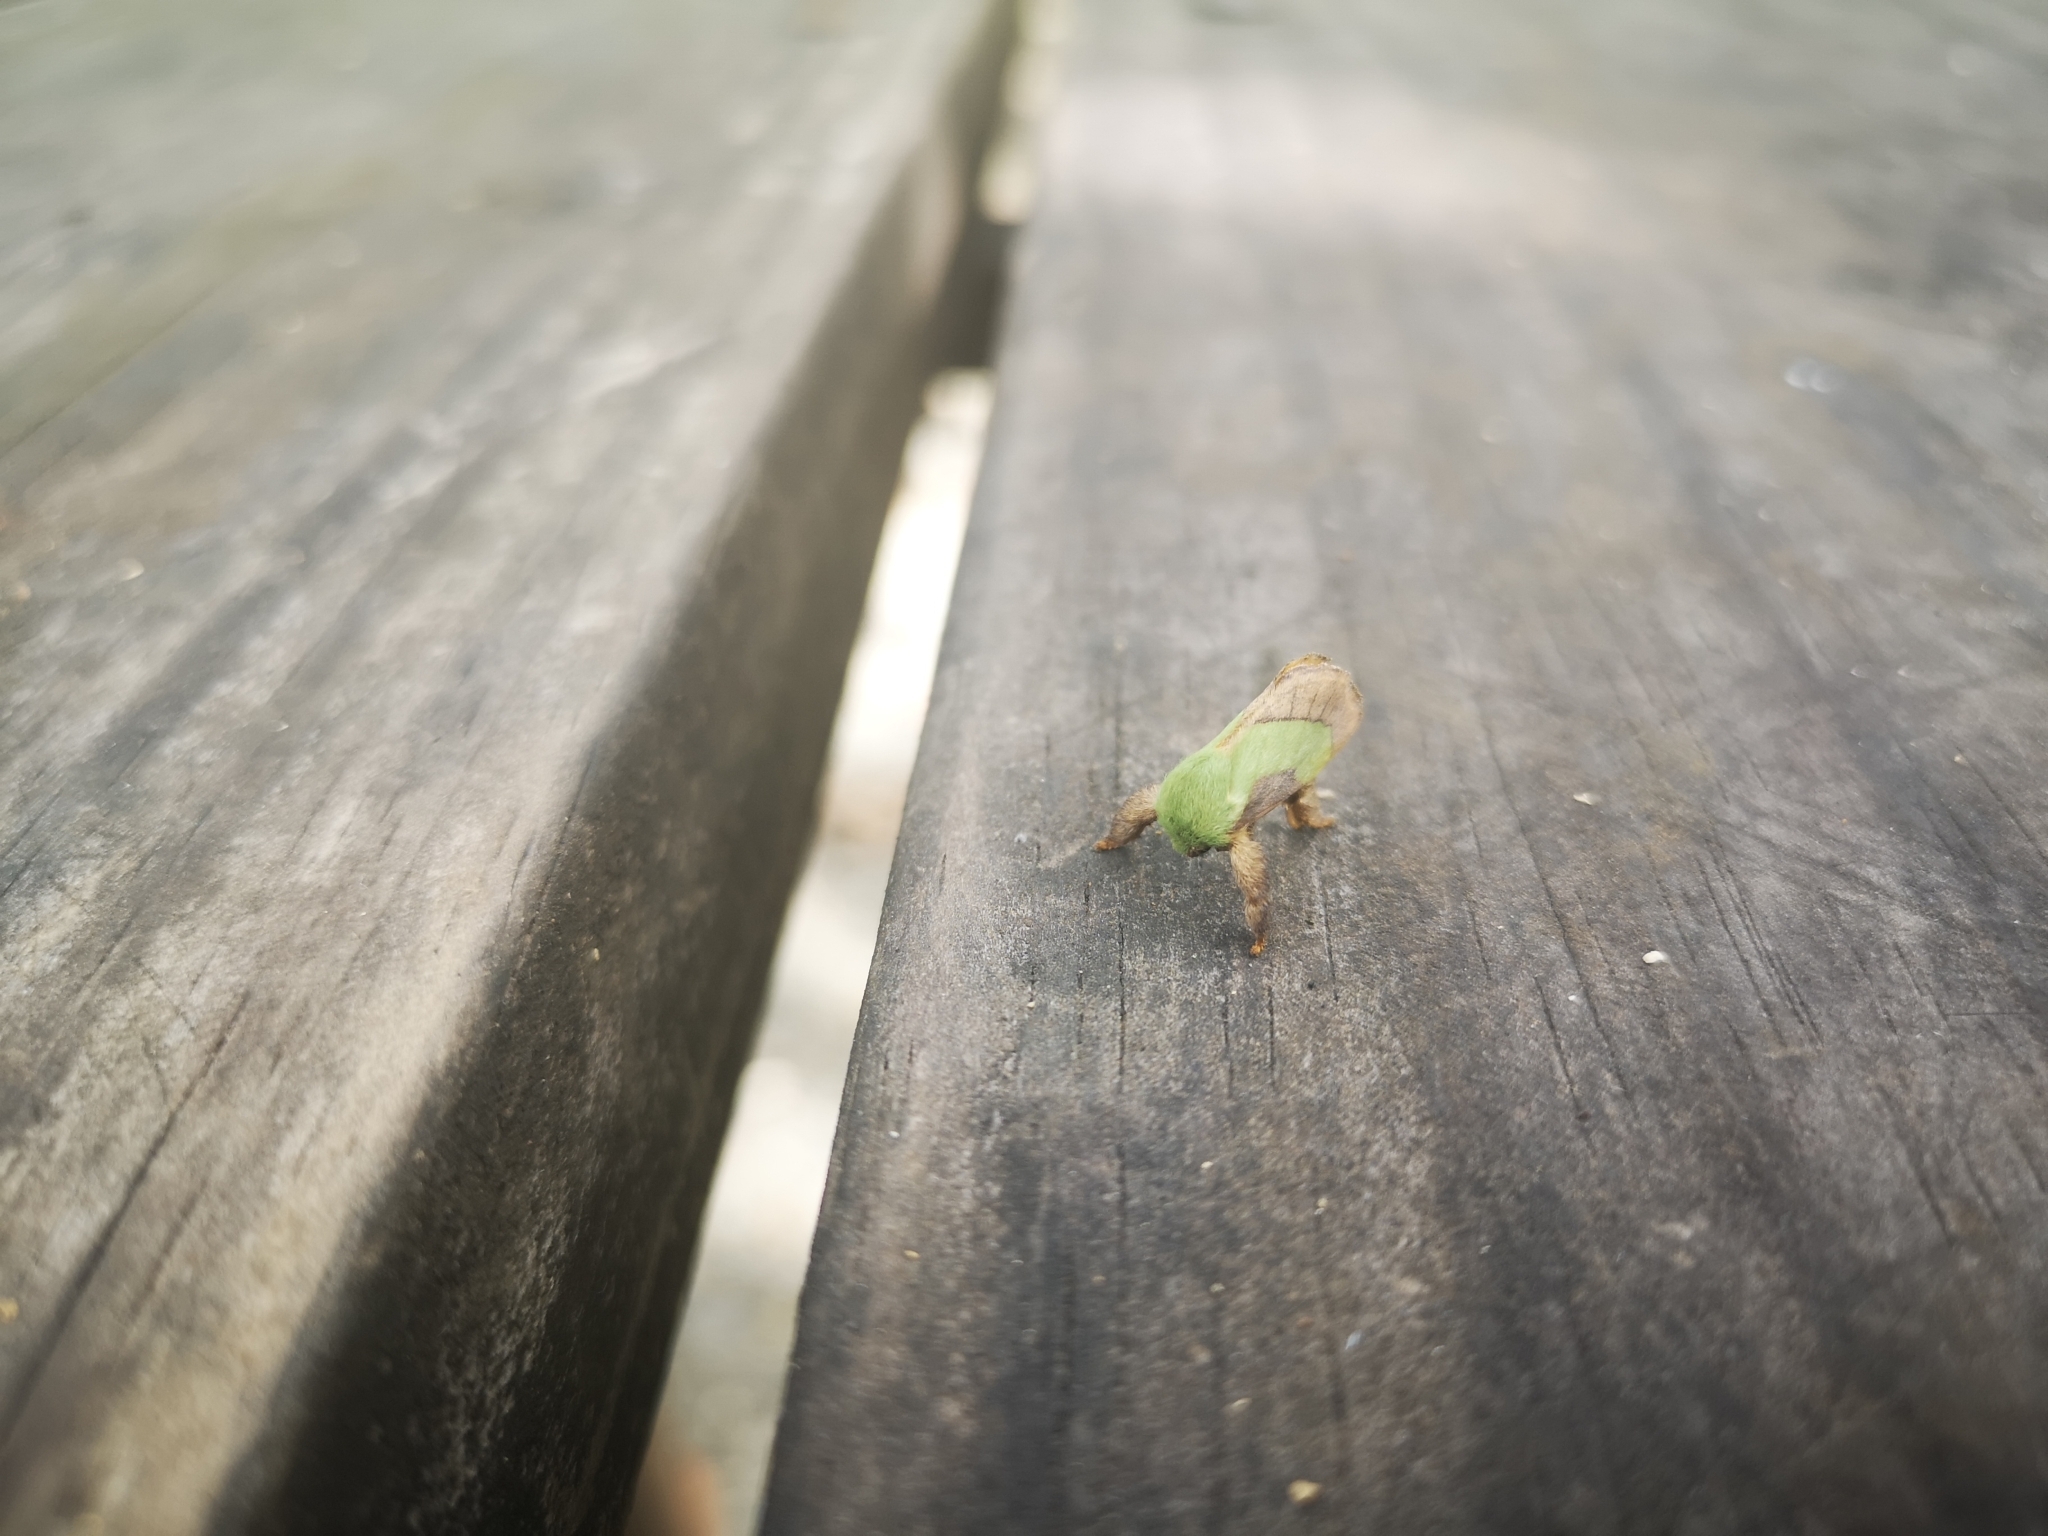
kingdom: Animalia
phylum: Arthropoda
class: Insecta
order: Lepidoptera
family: Limacodidae
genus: Parasa
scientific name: Parasa chloris
